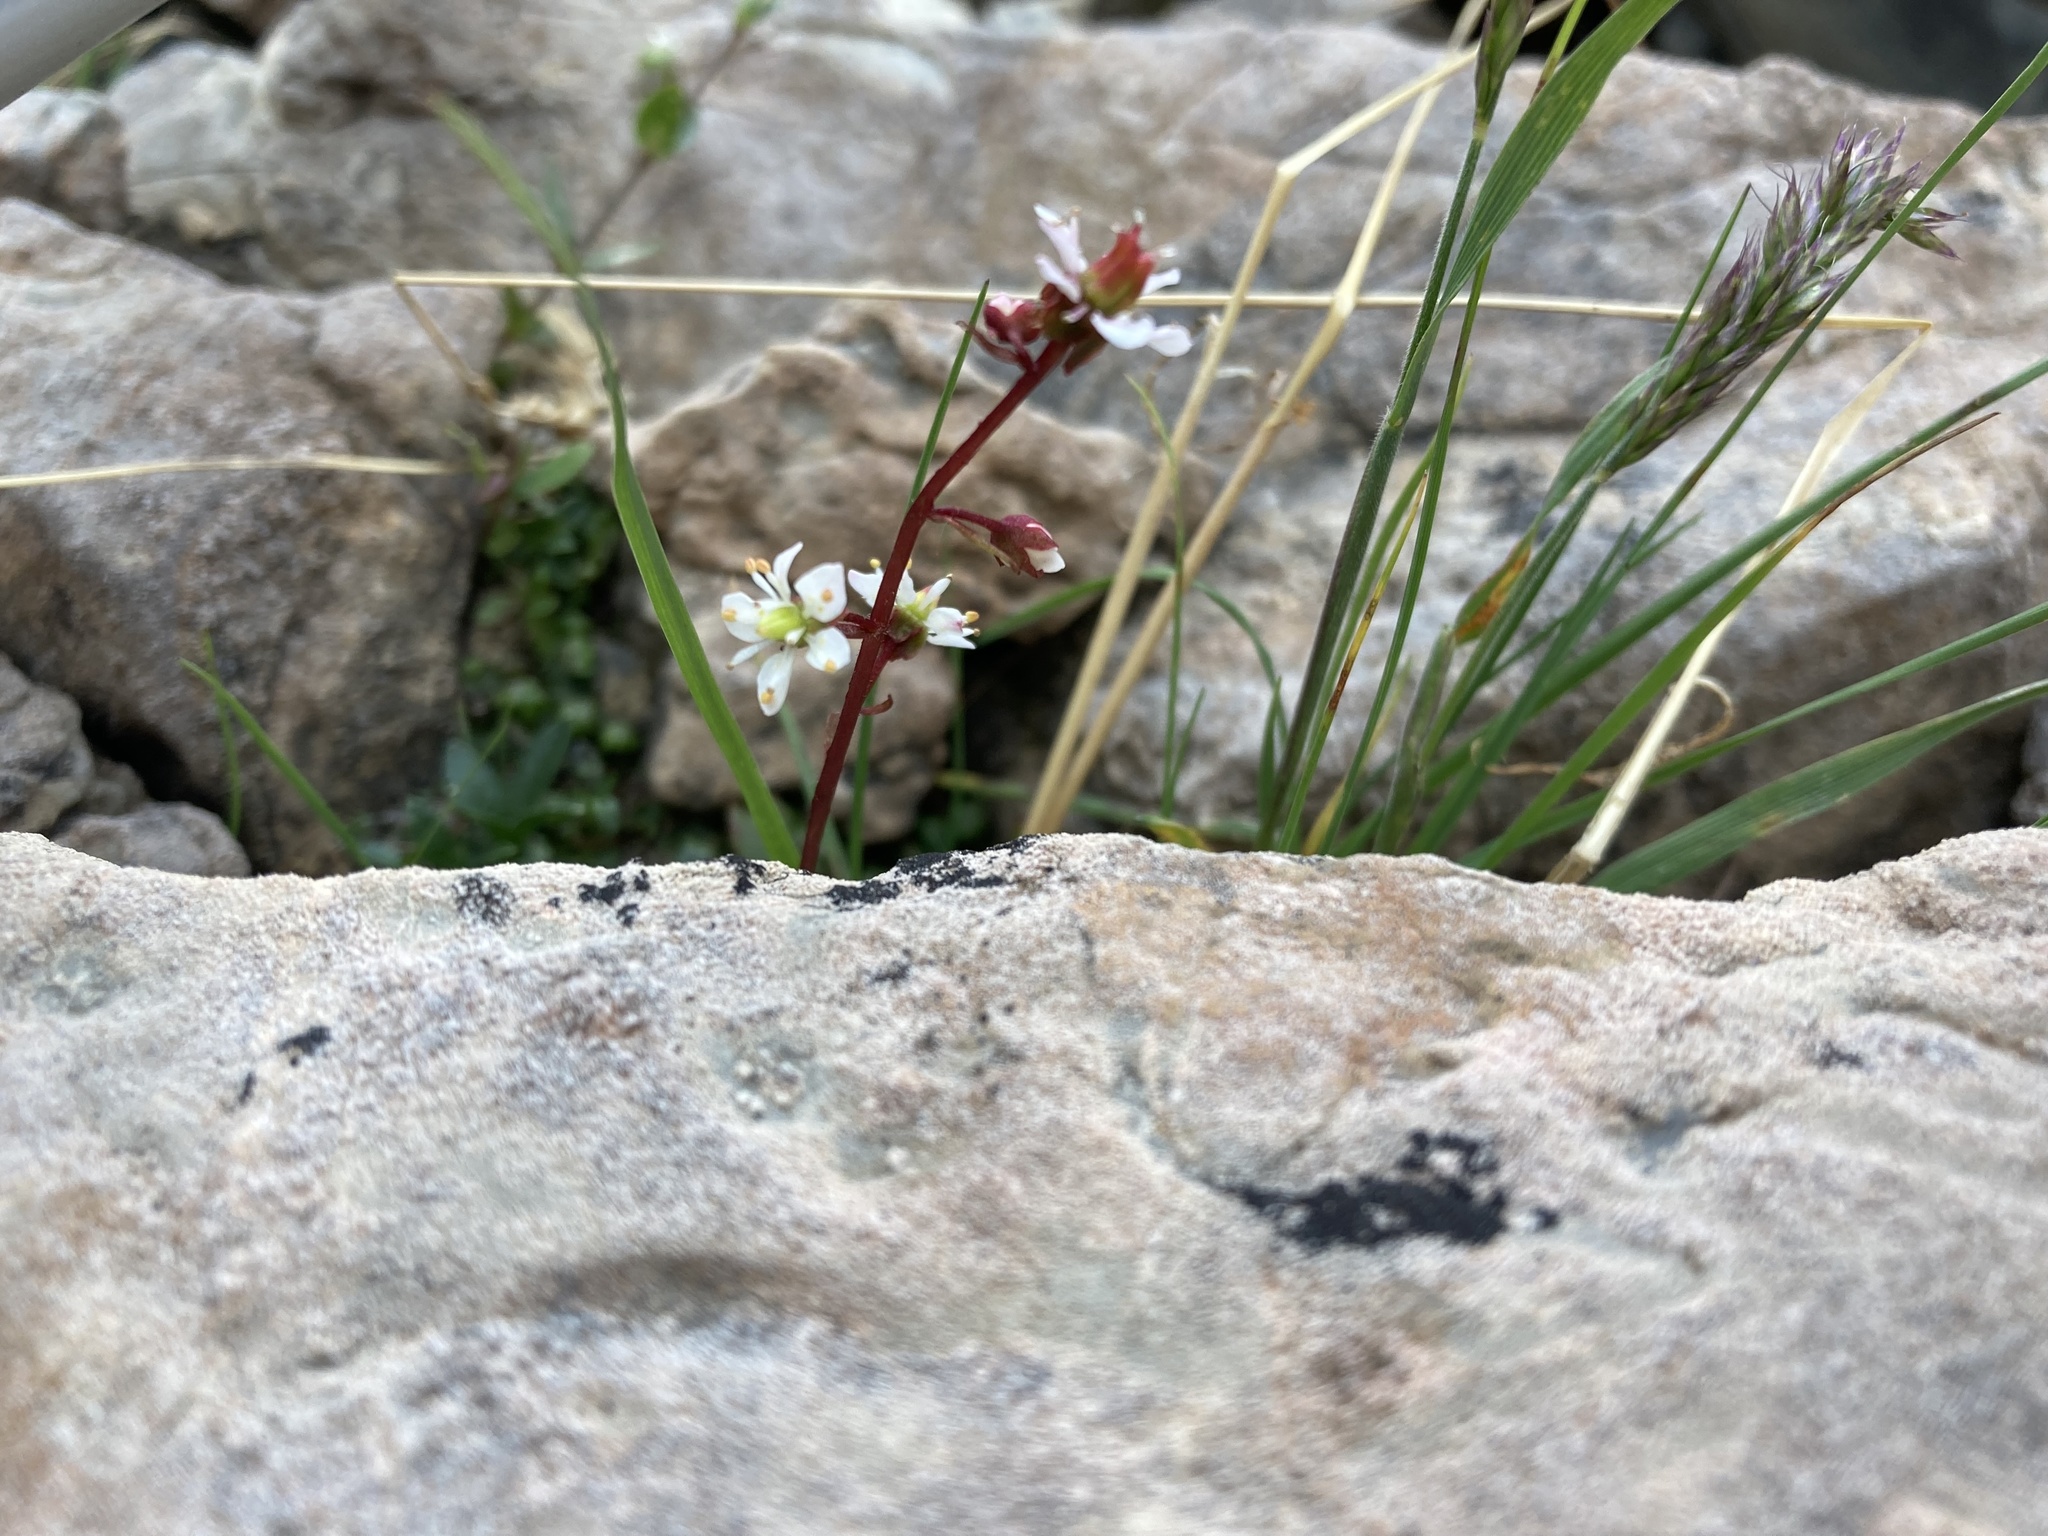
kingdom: Plantae
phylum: Tracheophyta
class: Magnoliopsida
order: Saxifragales
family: Saxifragaceae
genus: Micranthes
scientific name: Micranthes lyallii
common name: Lyall's saxifrage
